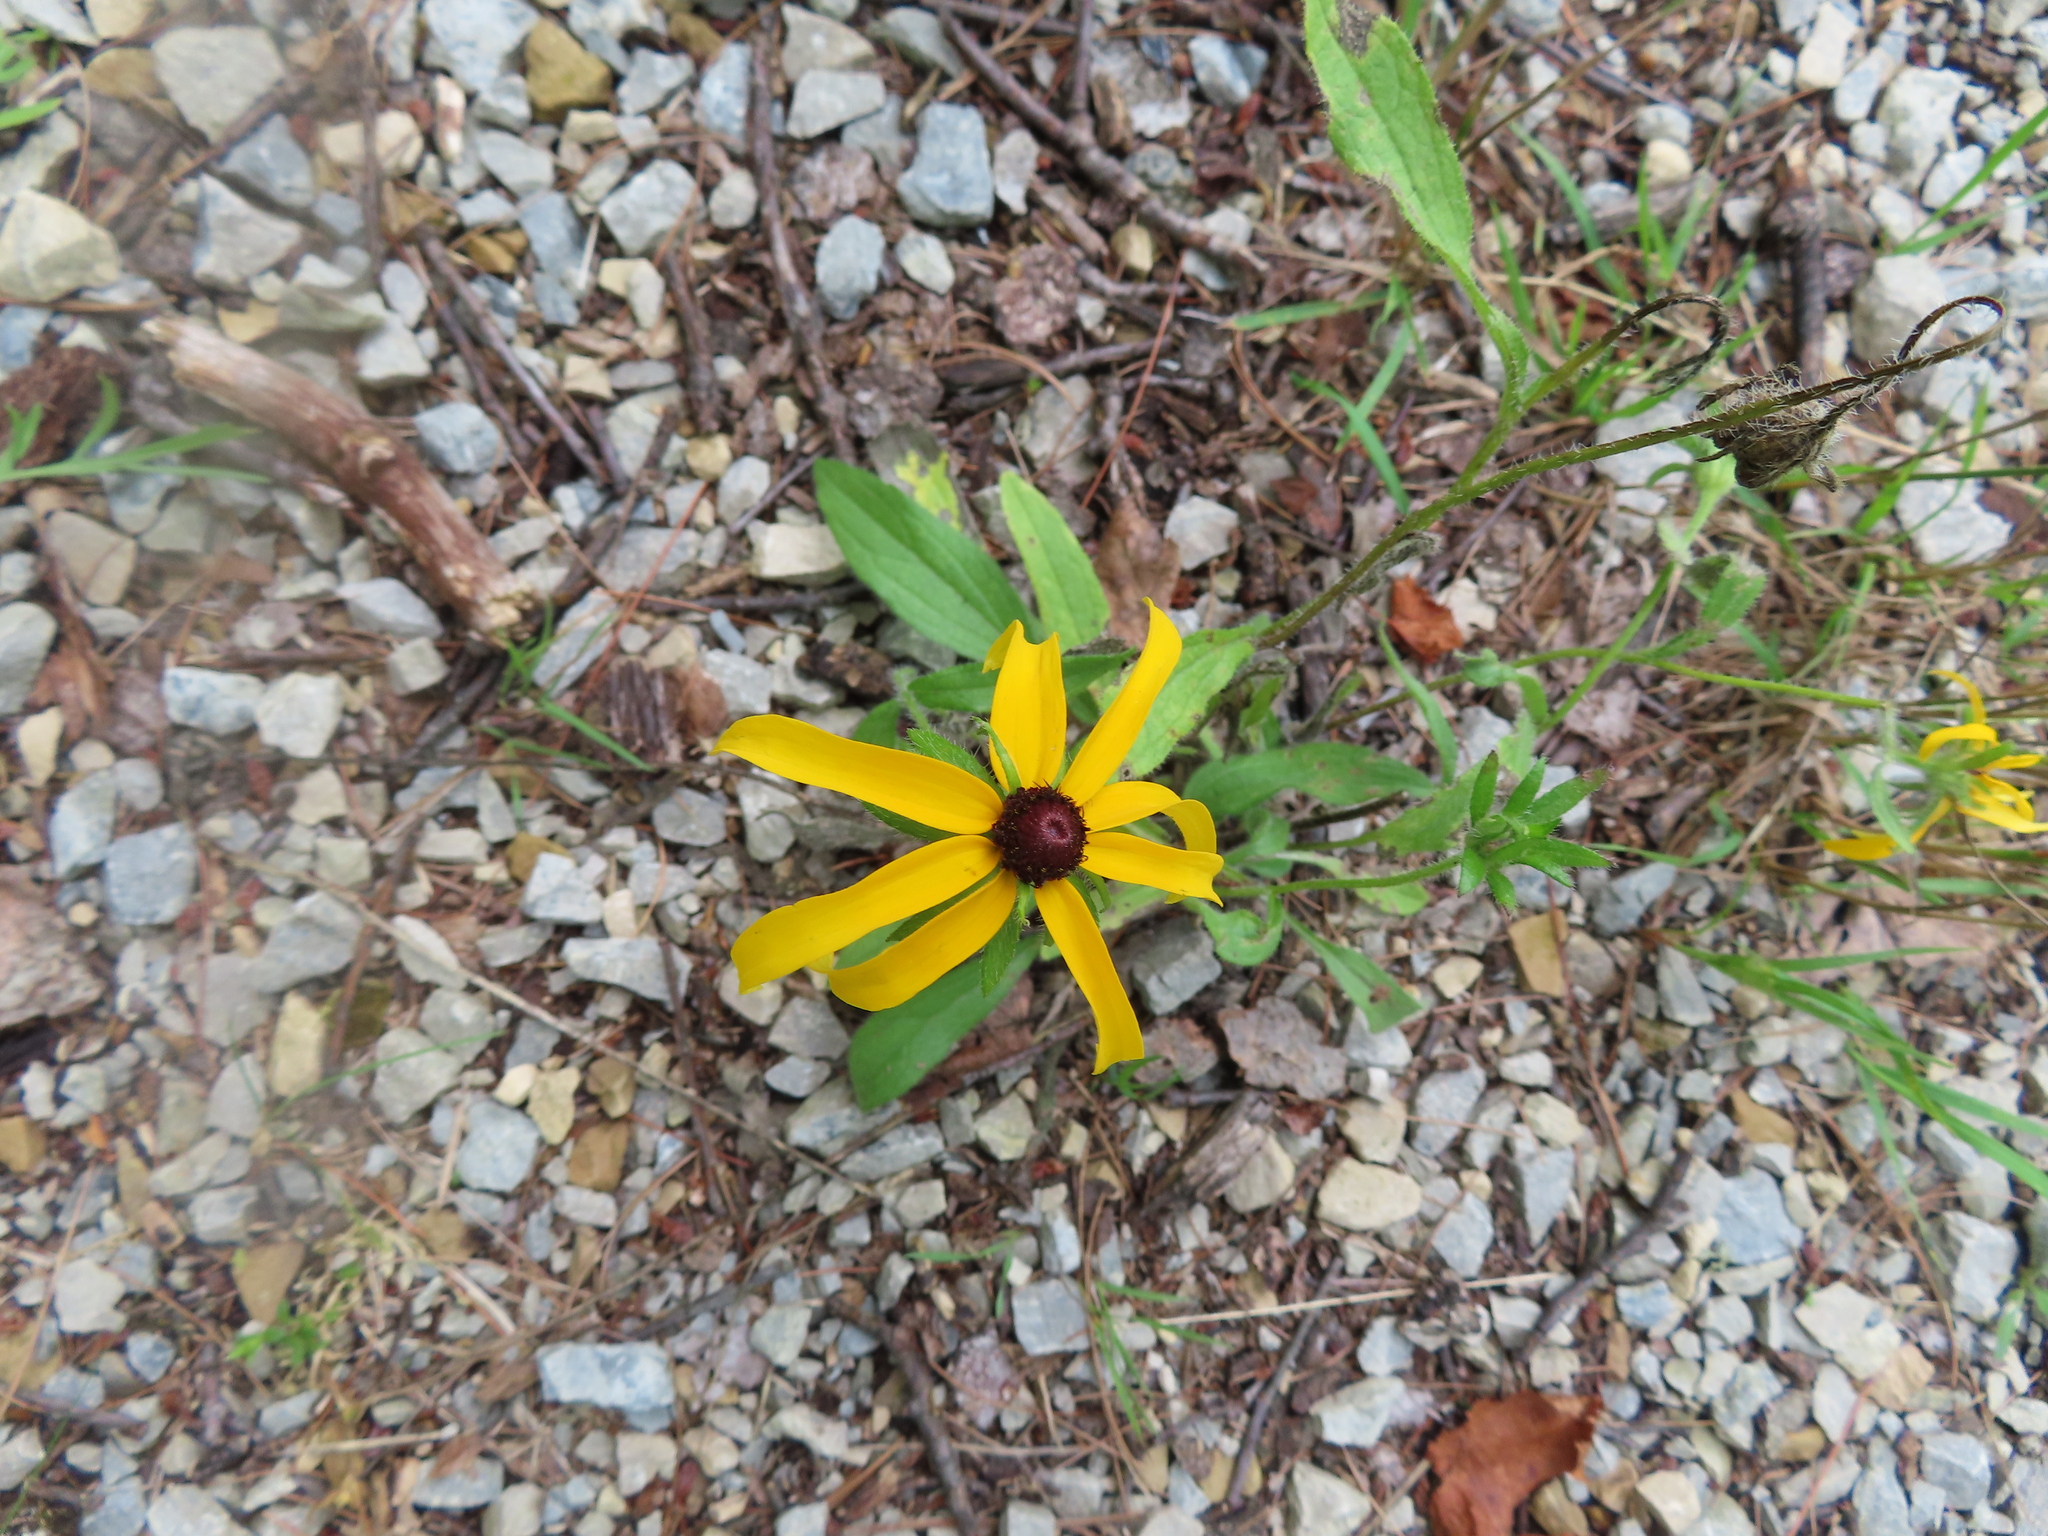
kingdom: Plantae
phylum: Tracheophyta
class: Magnoliopsida
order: Asterales
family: Asteraceae
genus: Rudbeckia
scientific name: Rudbeckia hirta
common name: Black-eyed-susan
